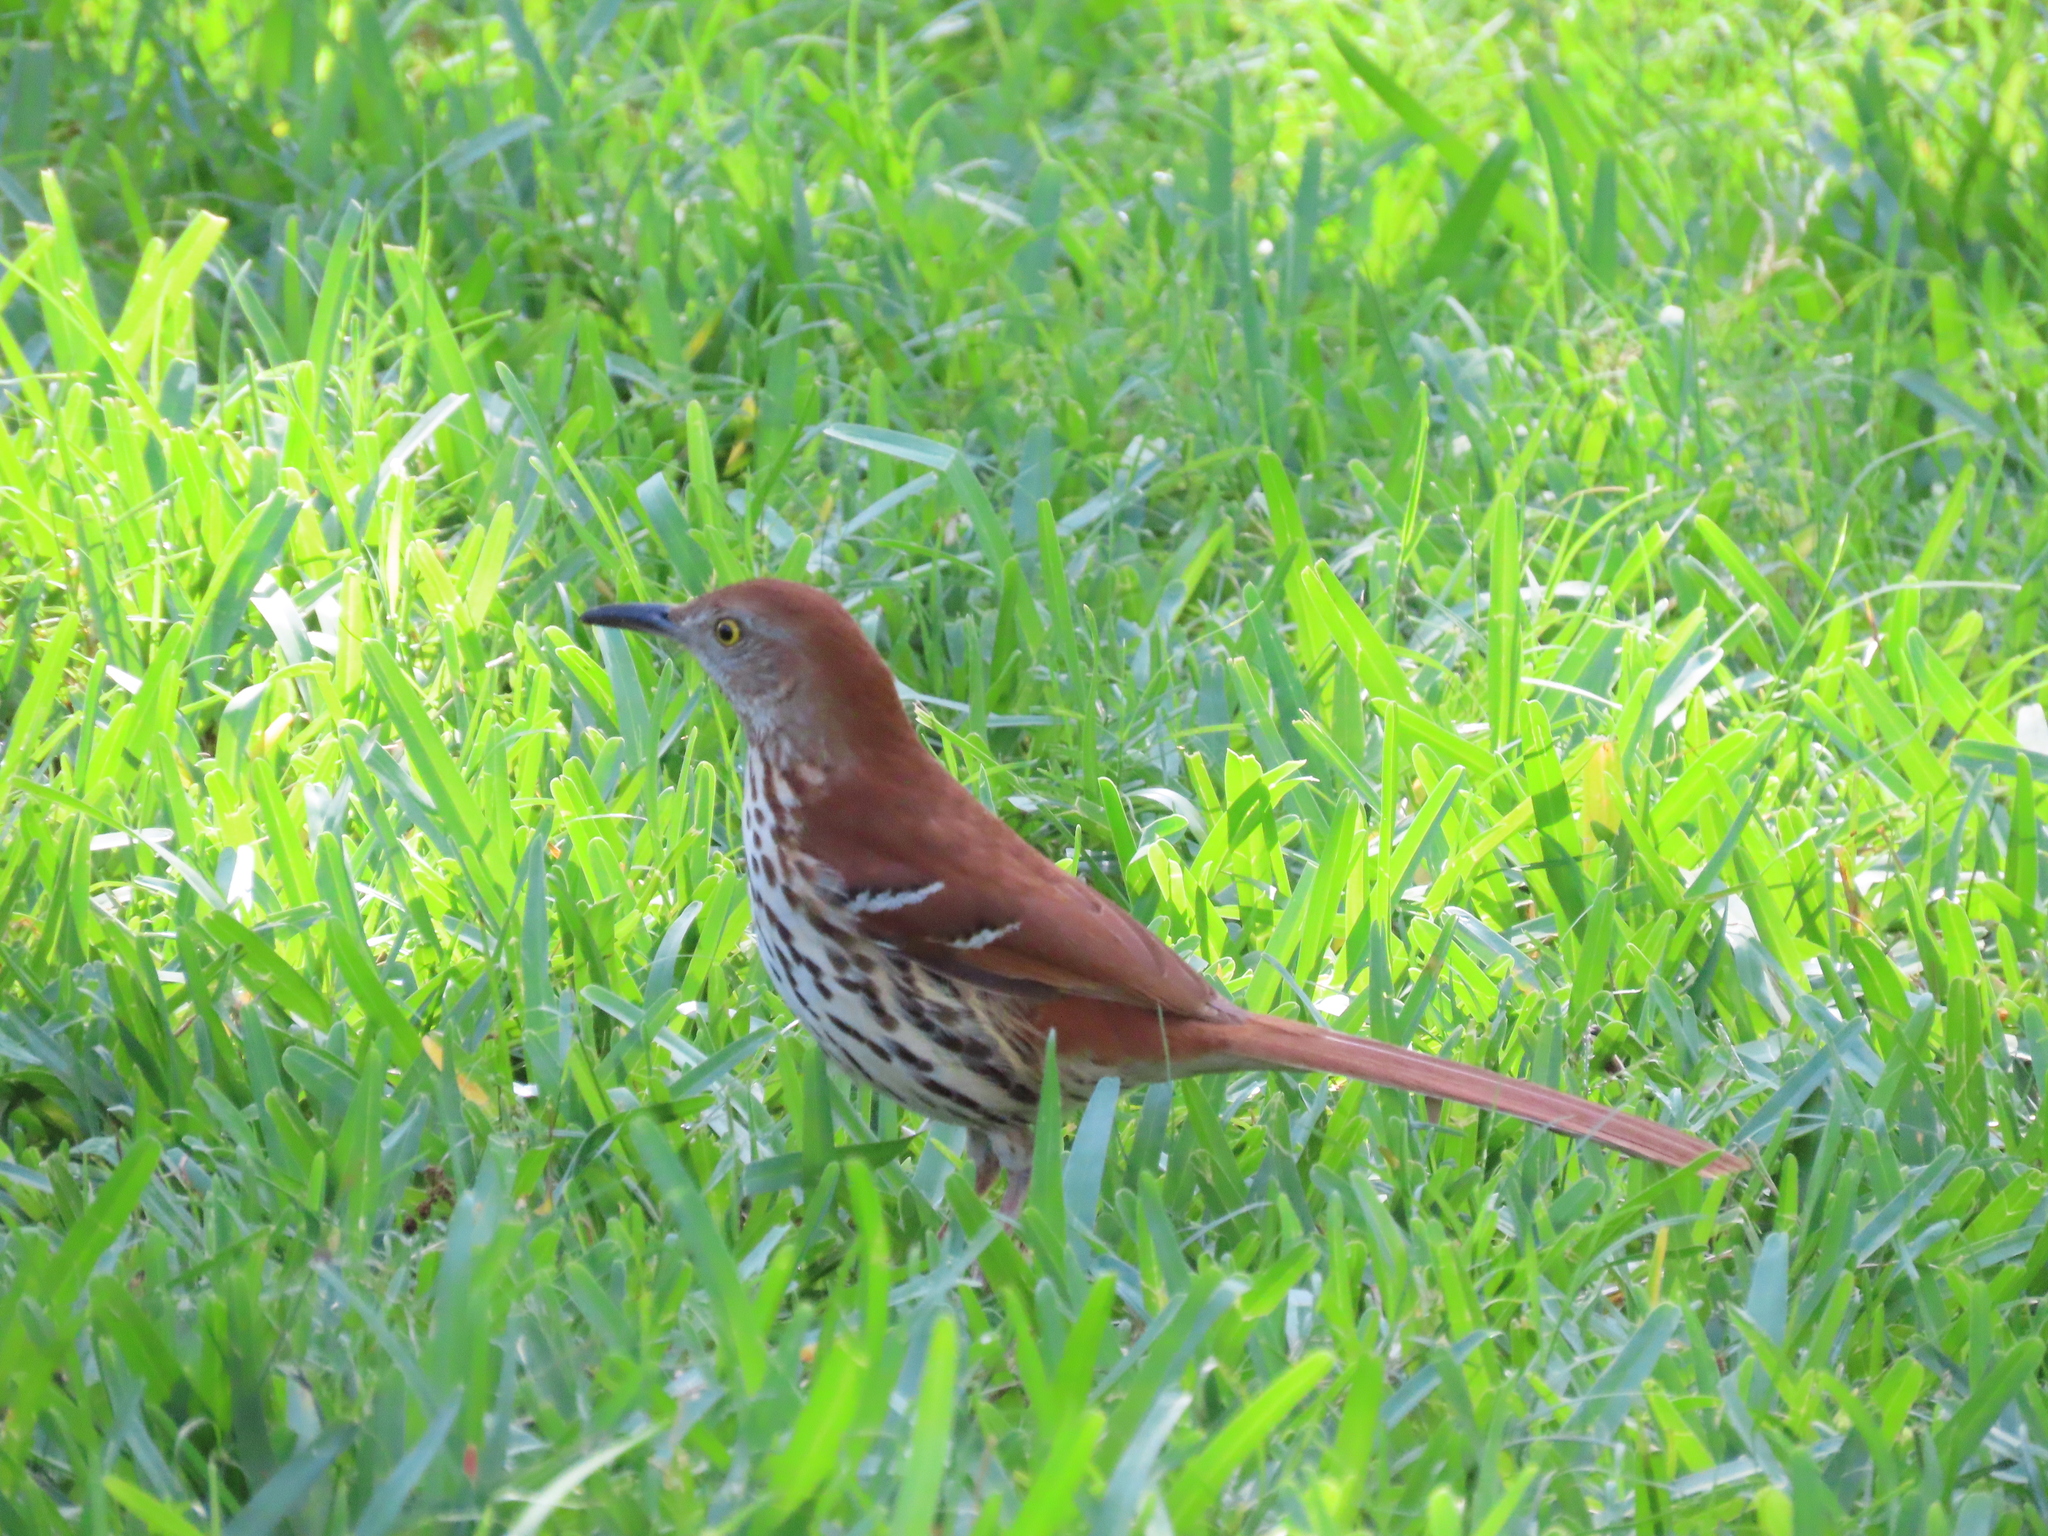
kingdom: Animalia
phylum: Chordata
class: Aves
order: Passeriformes
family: Mimidae
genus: Toxostoma
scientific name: Toxostoma rufum
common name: Brown thrasher
